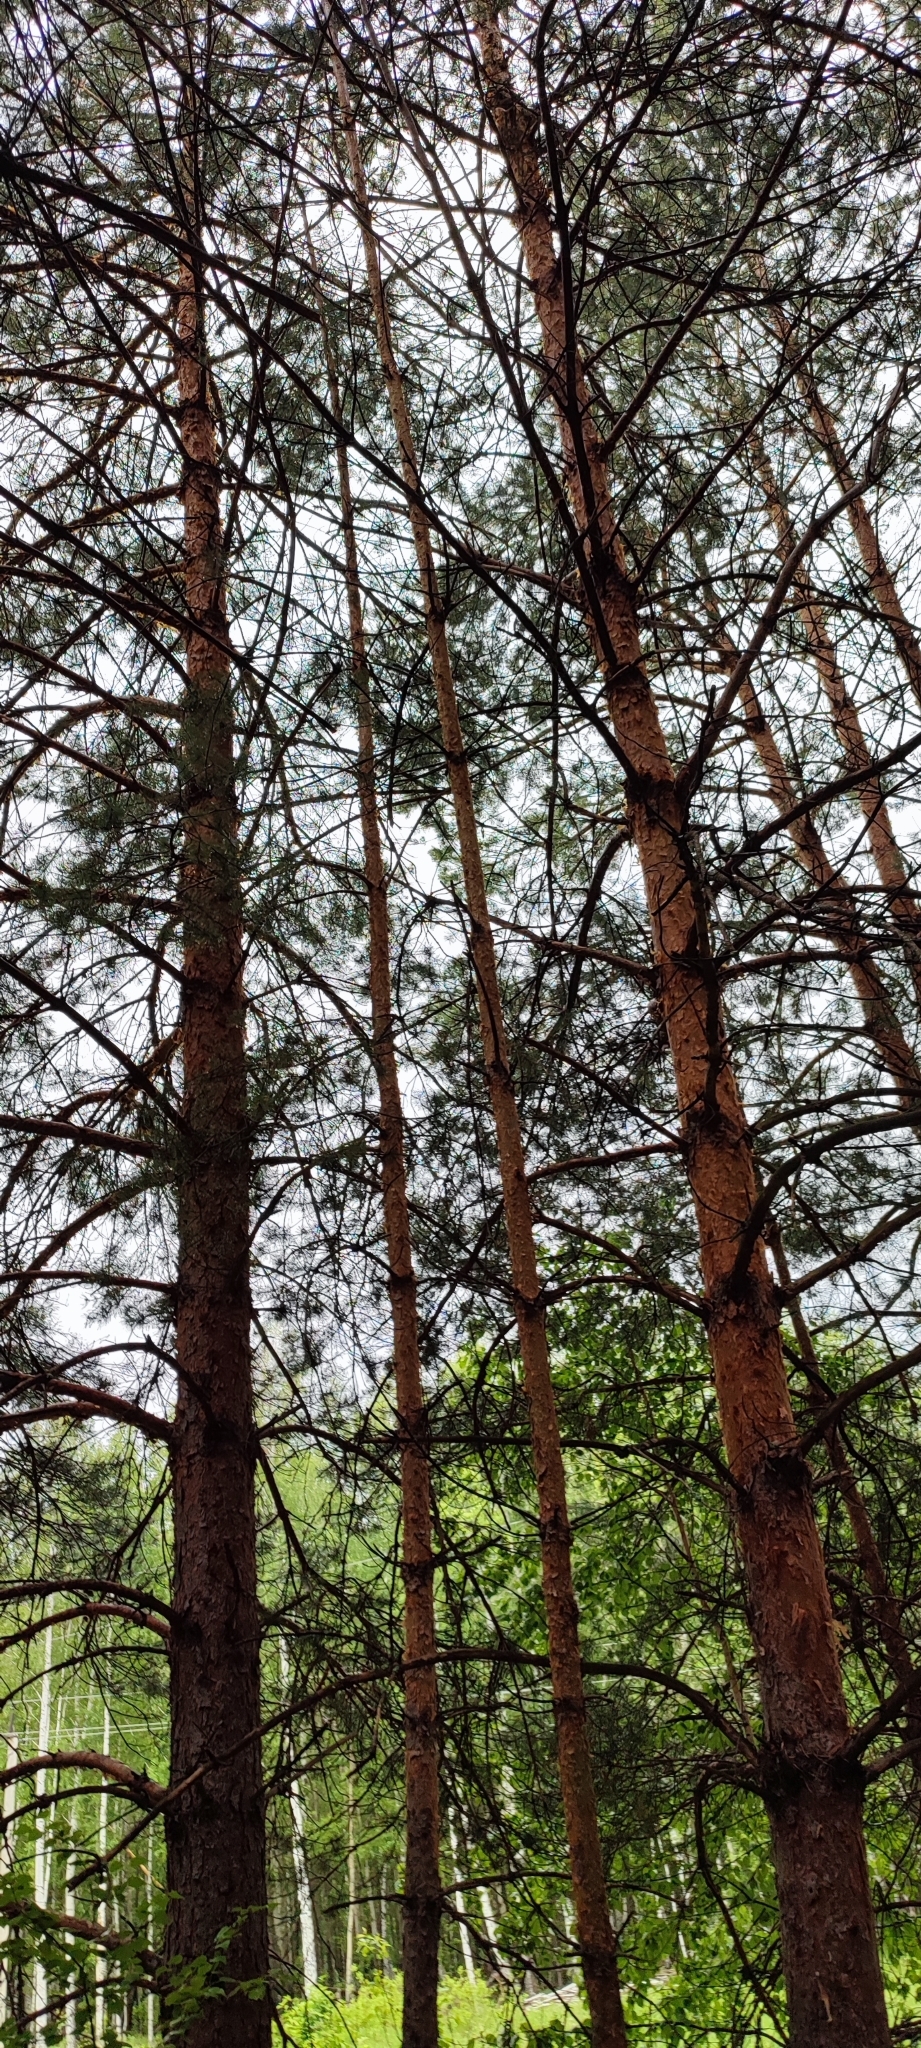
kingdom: Plantae
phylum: Tracheophyta
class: Pinopsida
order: Pinales
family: Pinaceae
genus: Pinus
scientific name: Pinus sylvestris
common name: Scots pine
